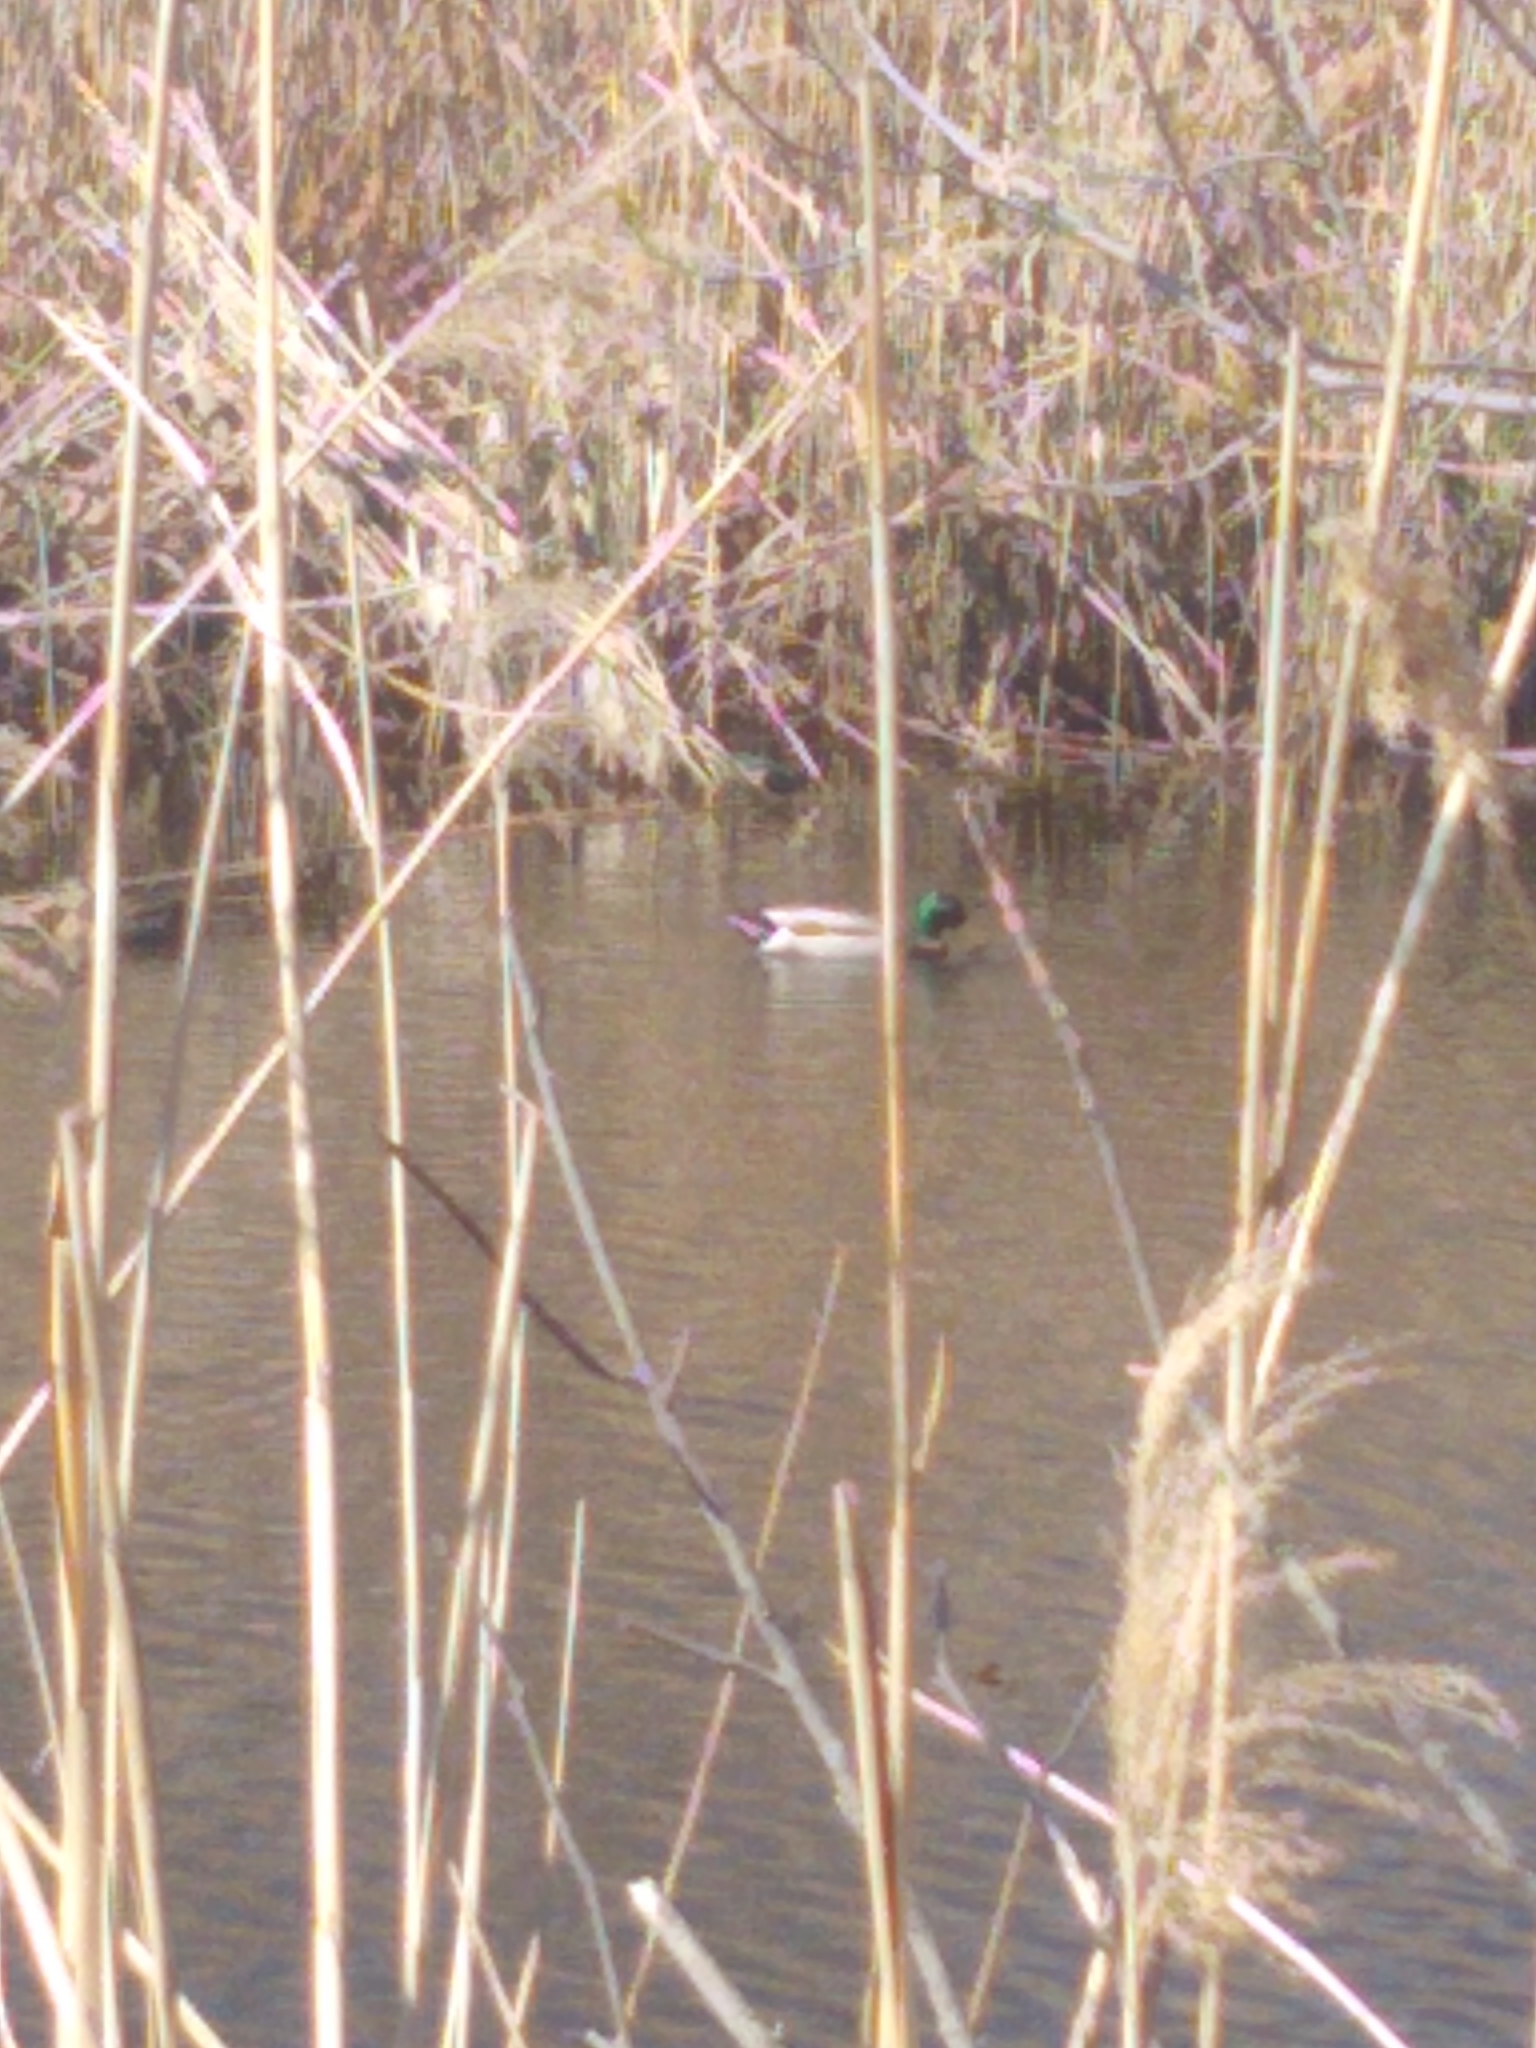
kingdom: Animalia
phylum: Chordata
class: Aves
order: Anseriformes
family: Anatidae
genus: Anas
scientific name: Anas platyrhynchos
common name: Mallard
